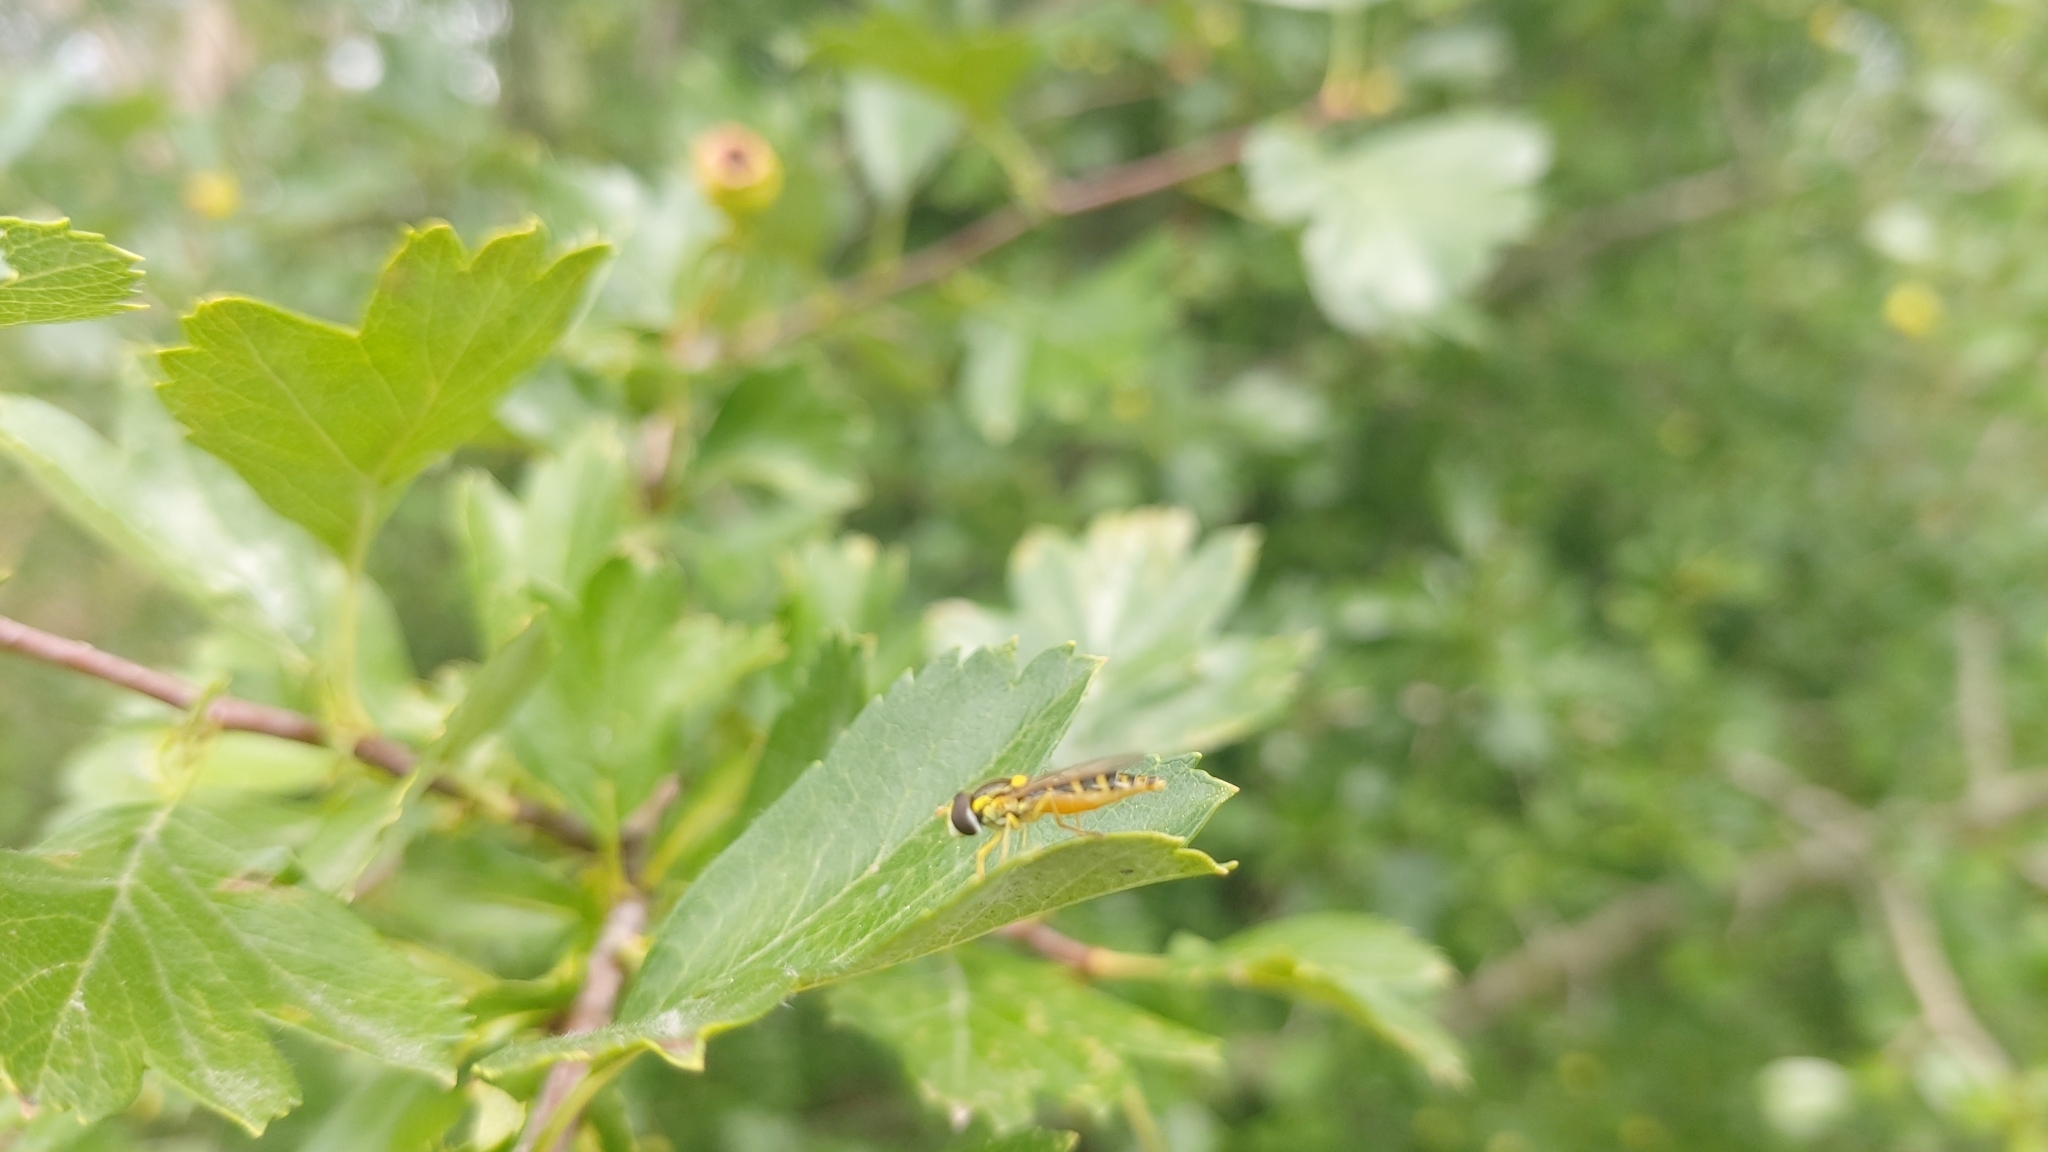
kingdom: Animalia
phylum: Arthropoda
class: Insecta
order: Diptera
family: Syrphidae
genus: Sphaerophoria
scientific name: Sphaerophoria
